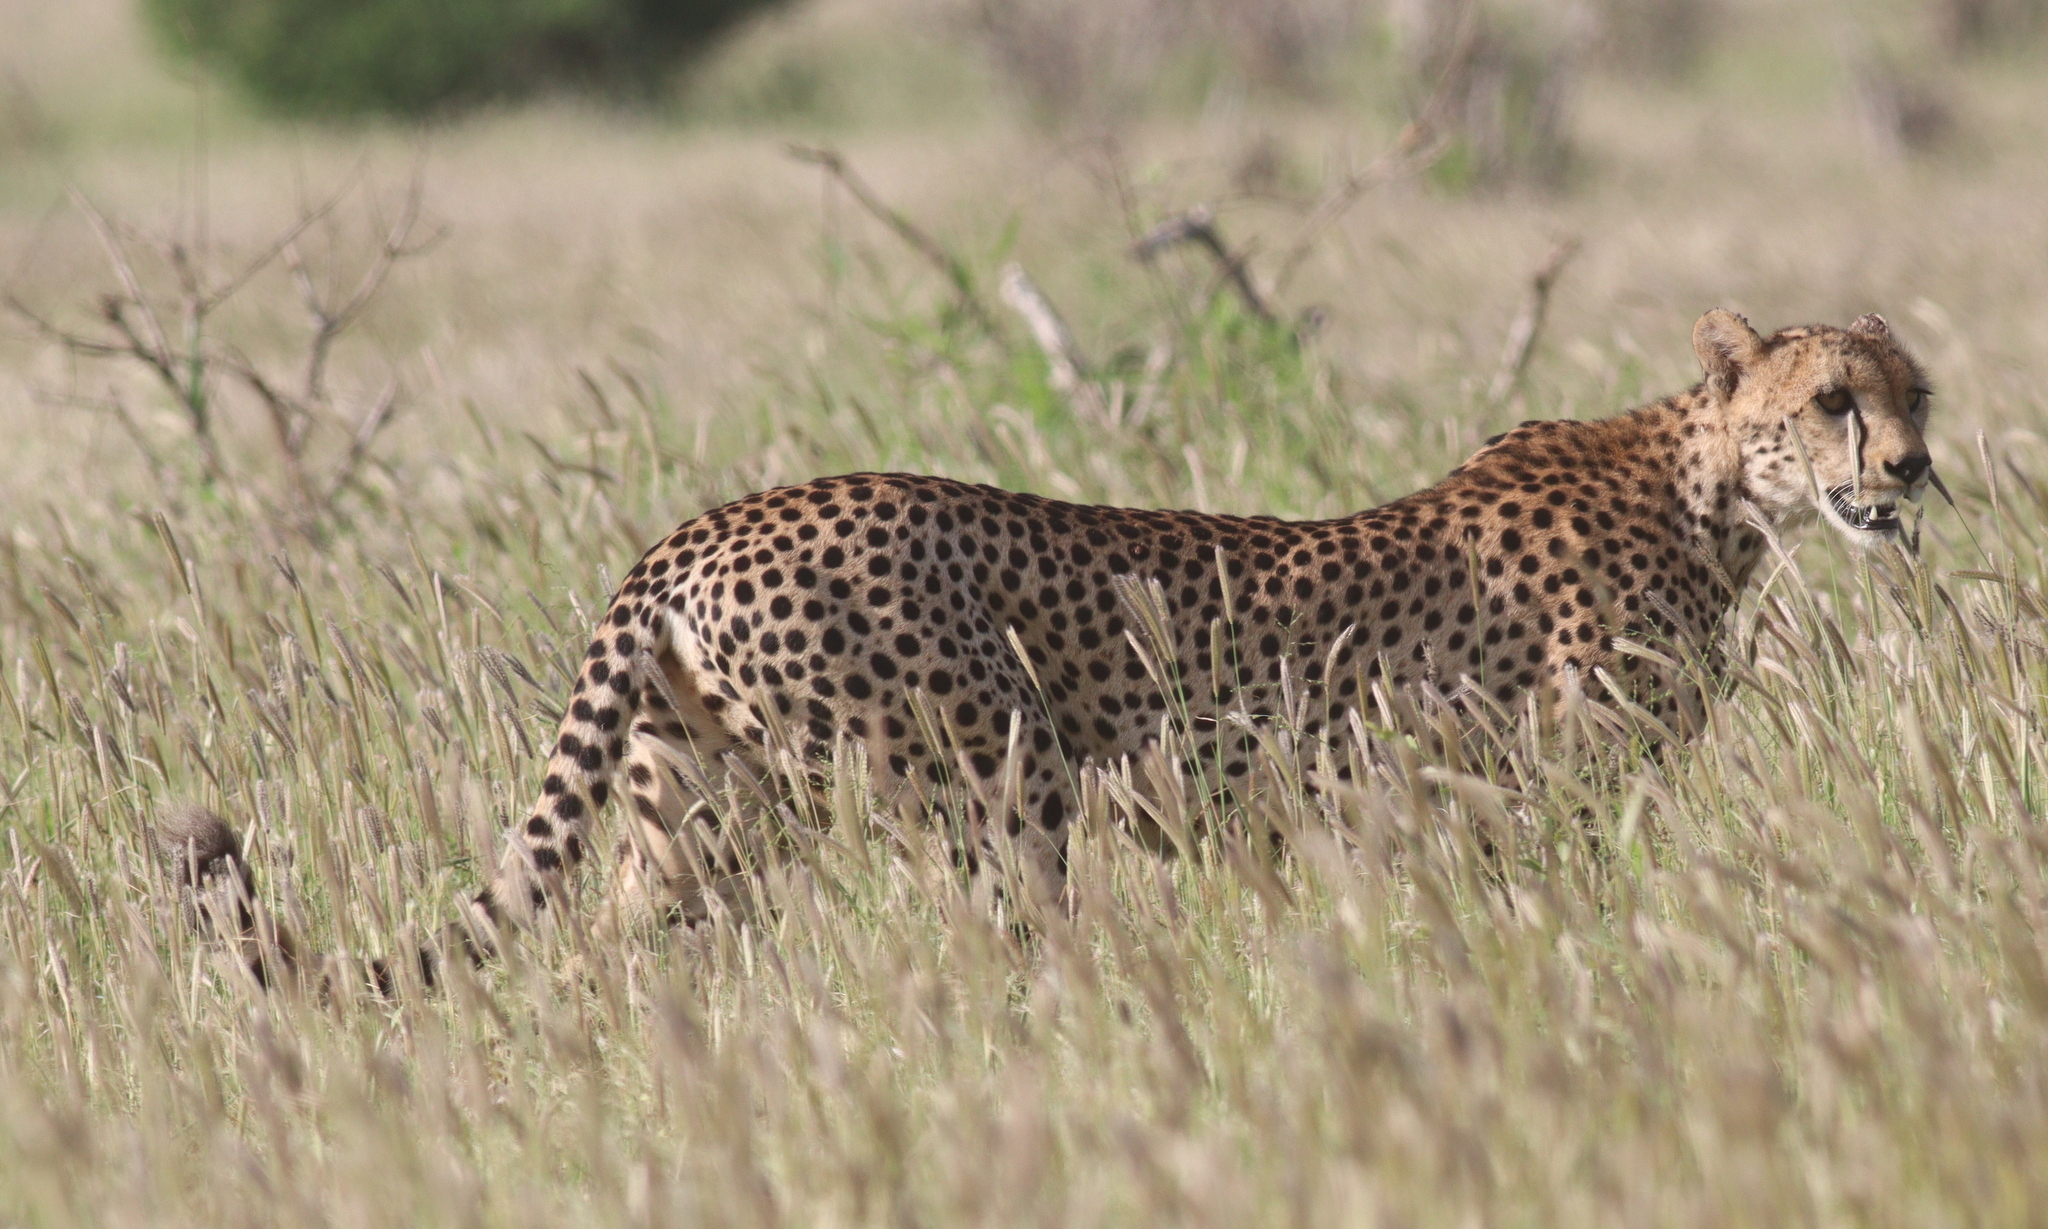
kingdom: Animalia
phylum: Chordata
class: Mammalia
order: Carnivora
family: Felidae
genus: Acinonyx
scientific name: Acinonyx jubatus
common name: Cheetah
